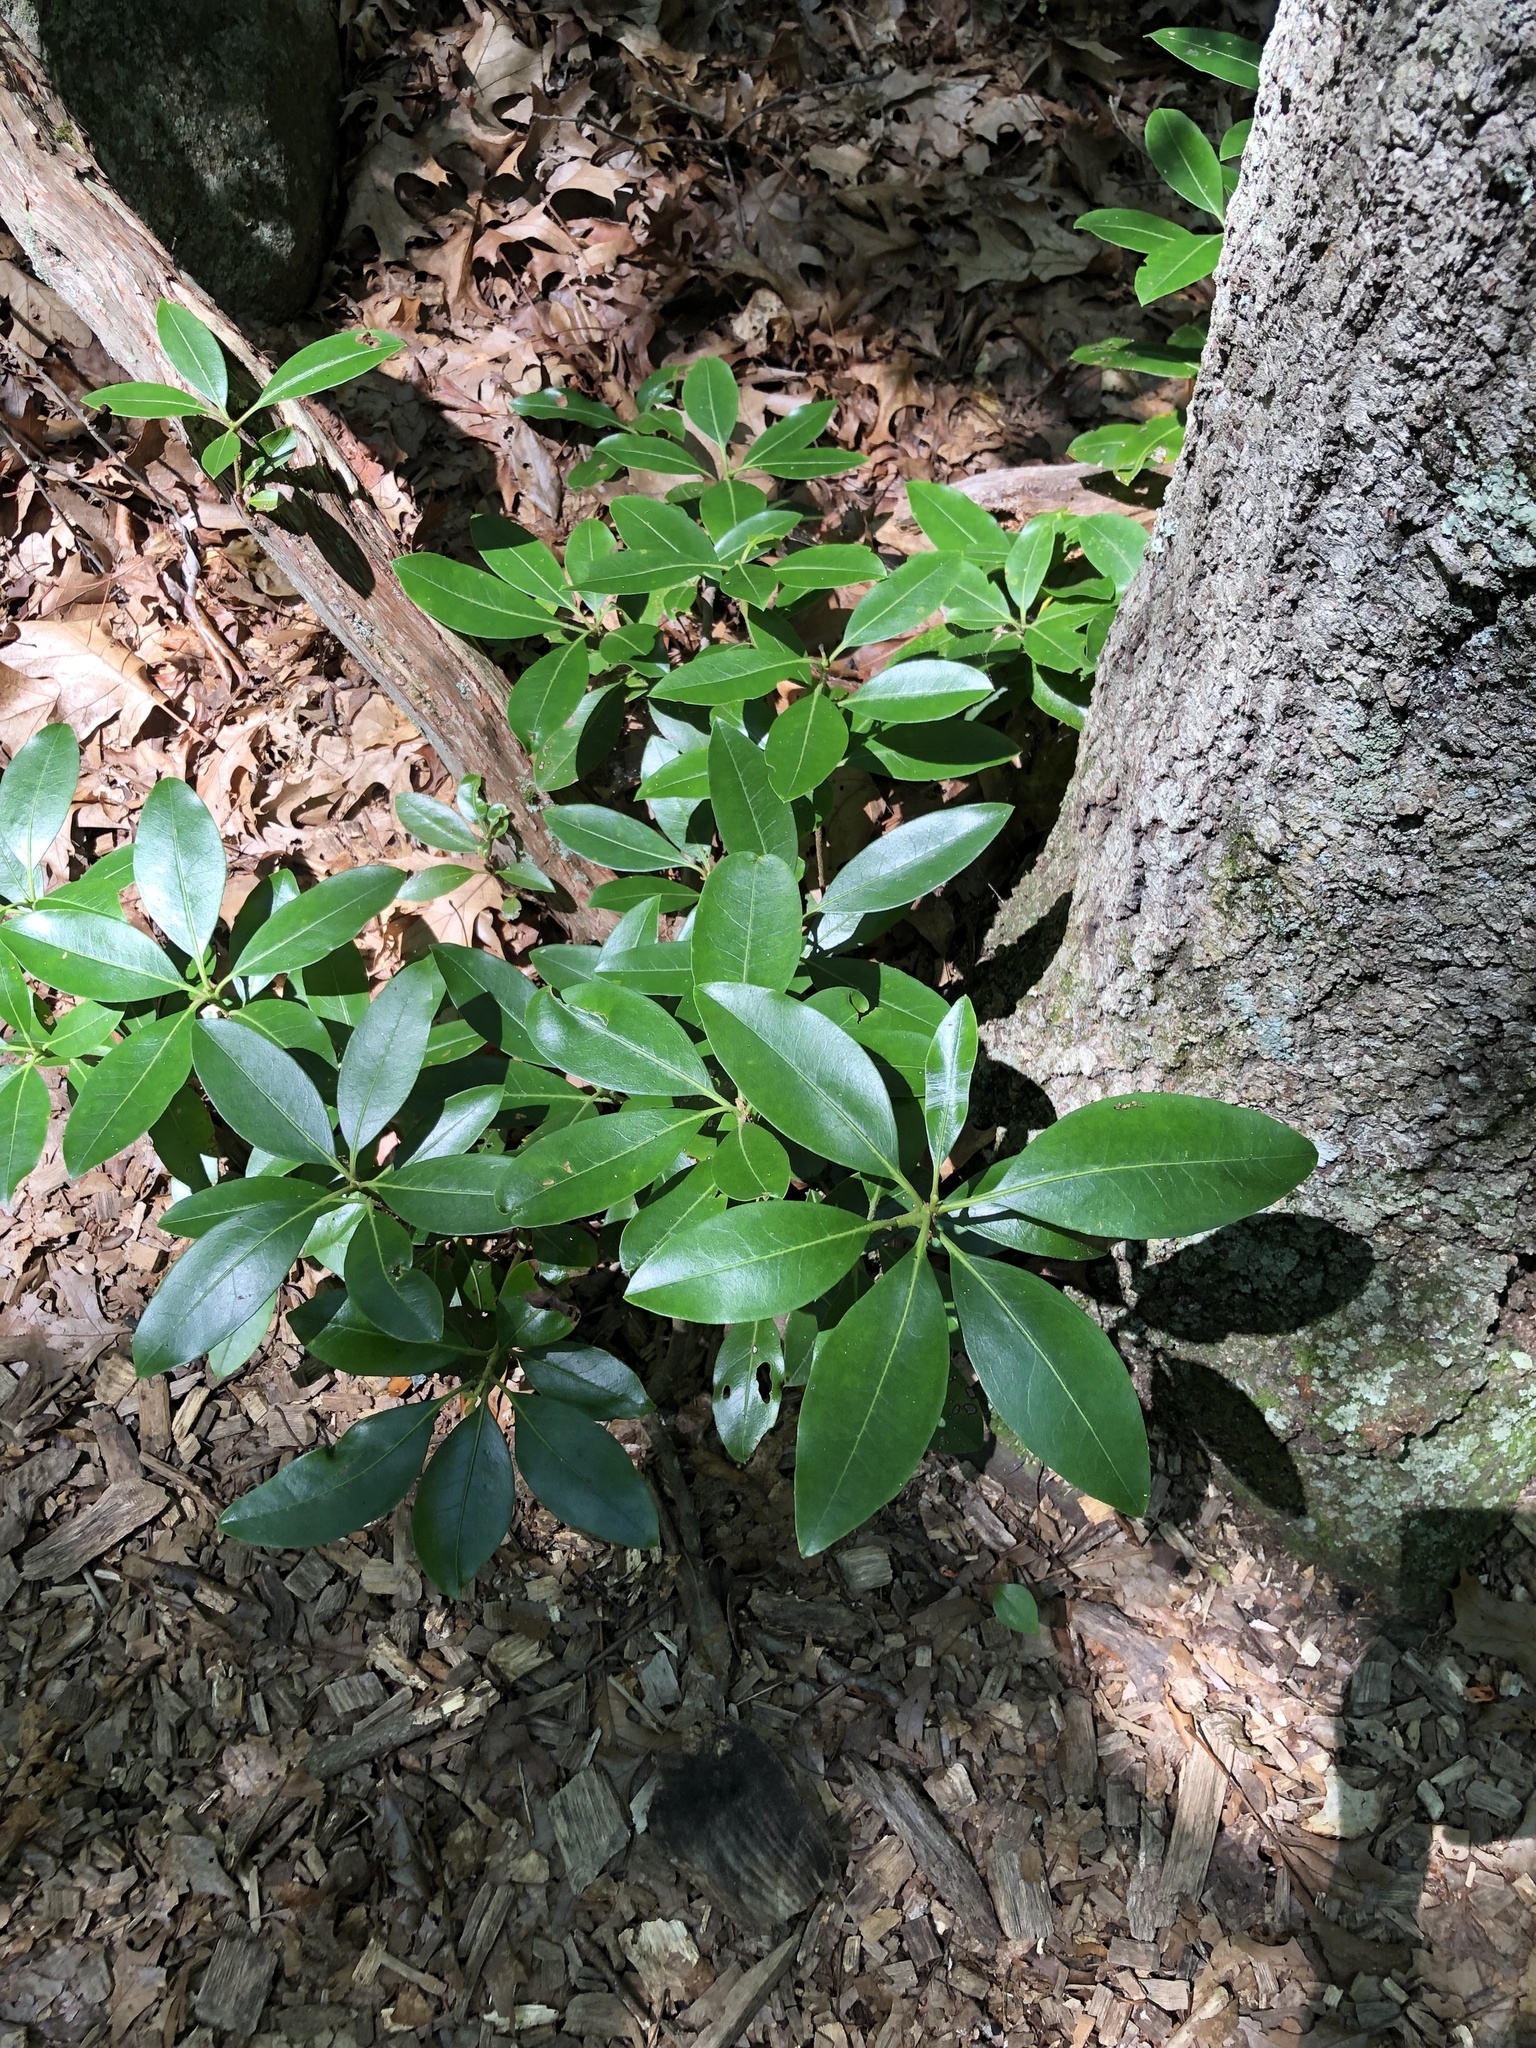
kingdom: Plantae
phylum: Tracheophyta
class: Magnoliopsida
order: Ericales
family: Ericaceae
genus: Kalmia
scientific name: Kalmia latifolia
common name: Mountain-laurel
